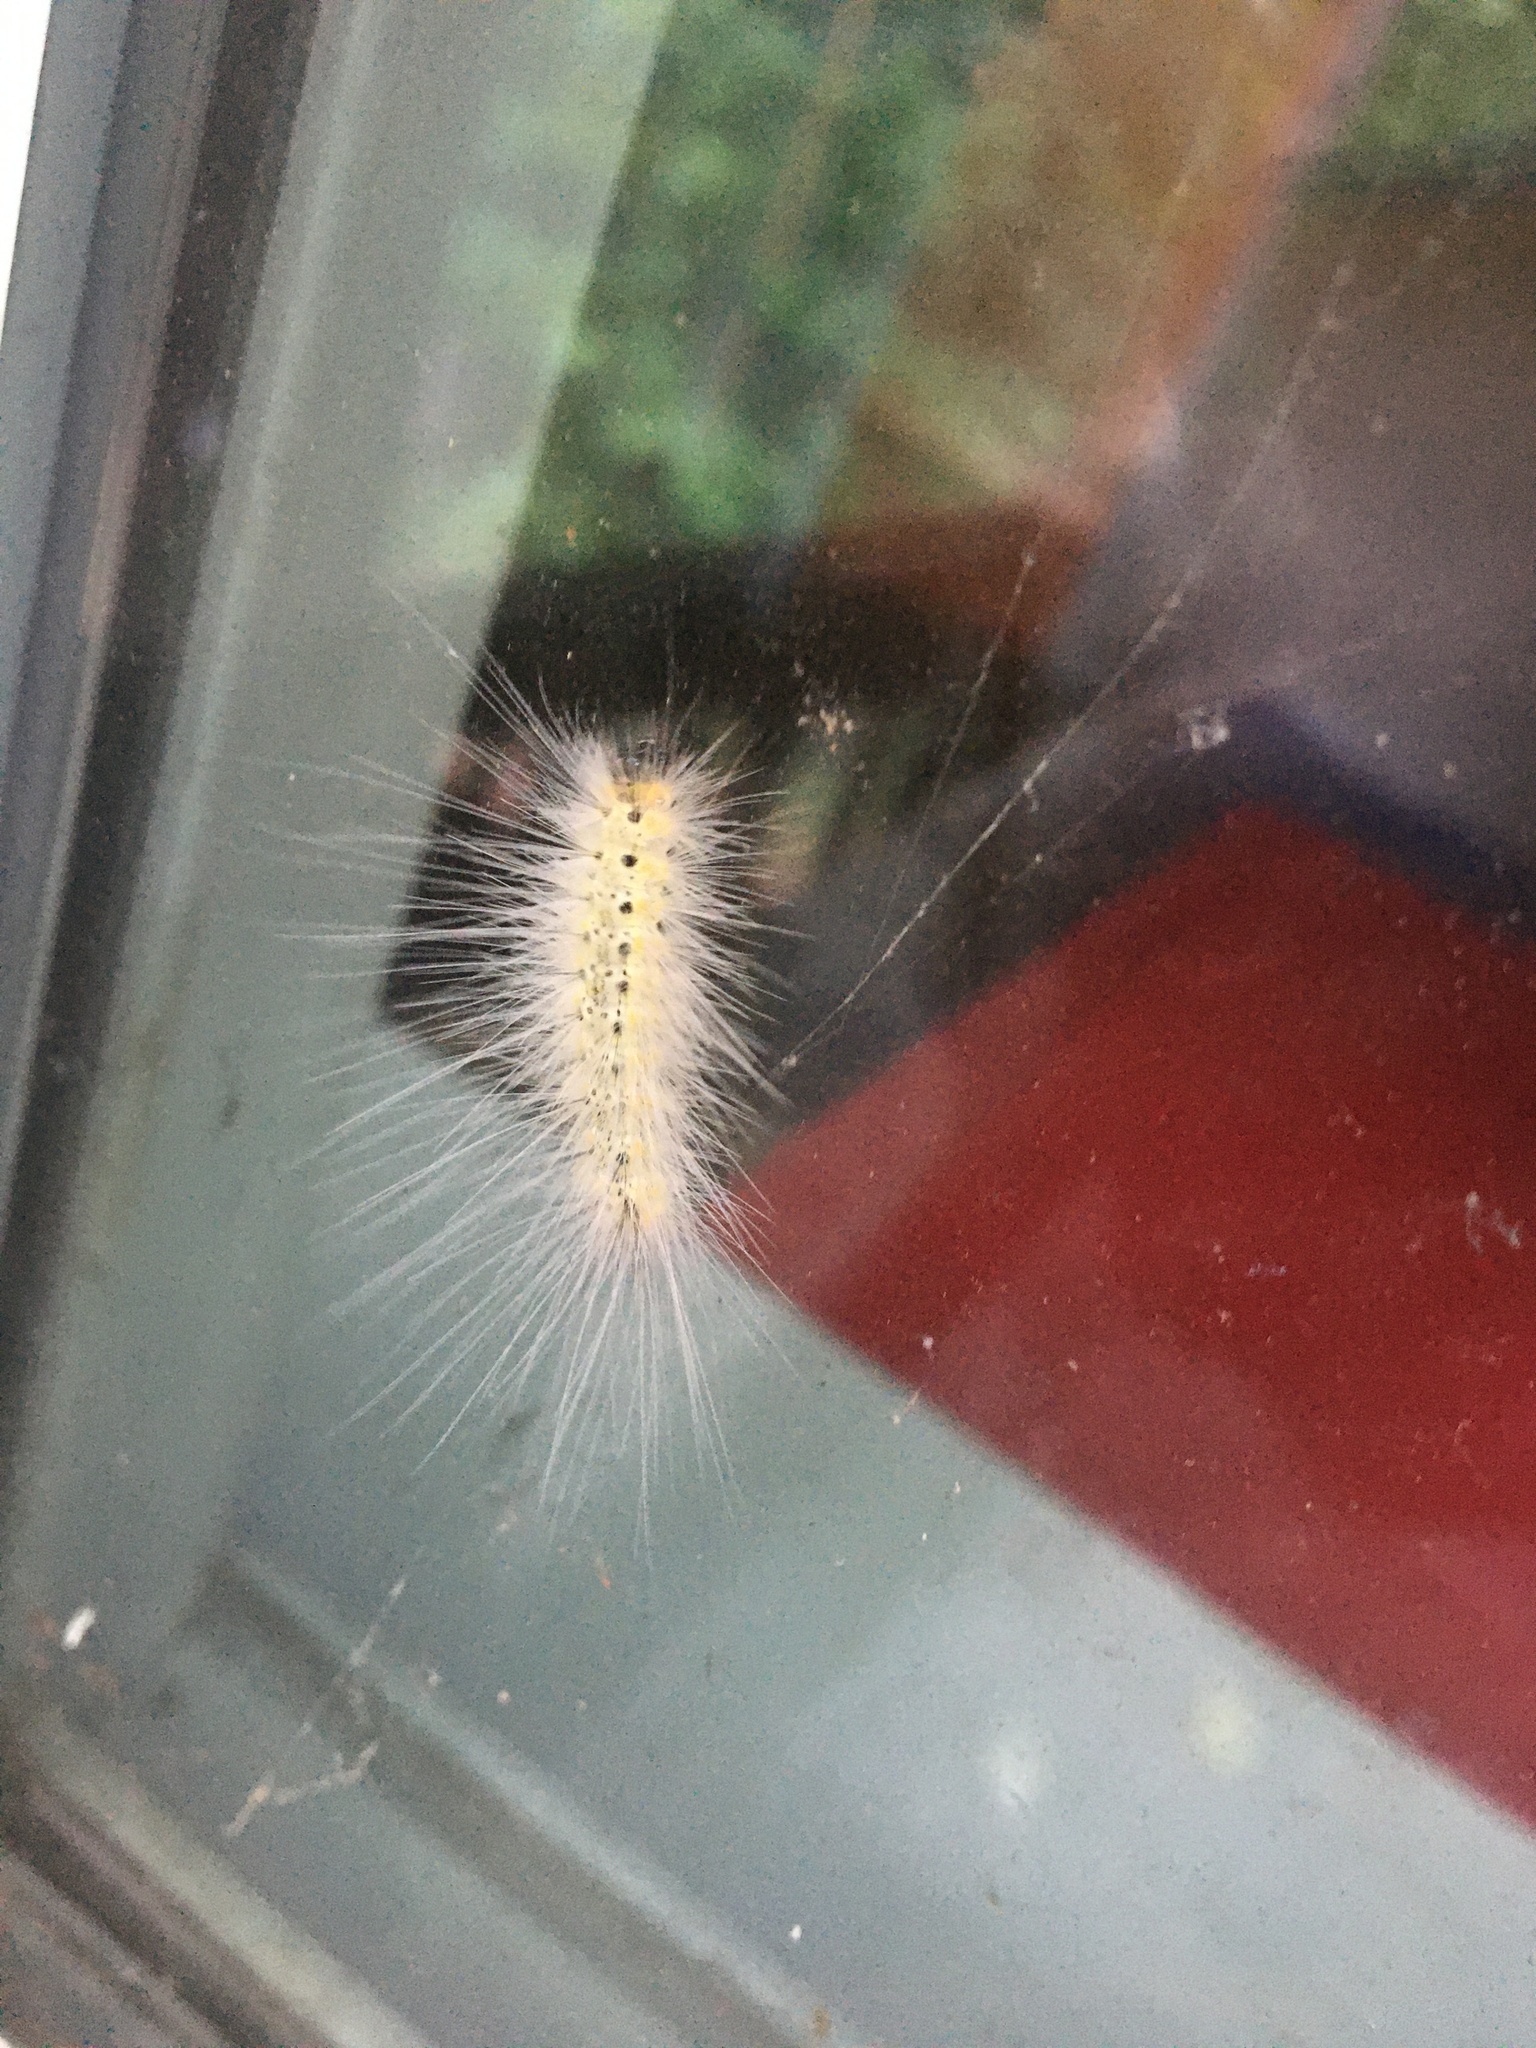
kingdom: Animalia
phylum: Arthropoda
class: Insecta
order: Lepidoptera
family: Erebidae
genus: Hyphantria
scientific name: Hyphantria cunea
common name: American white moth
